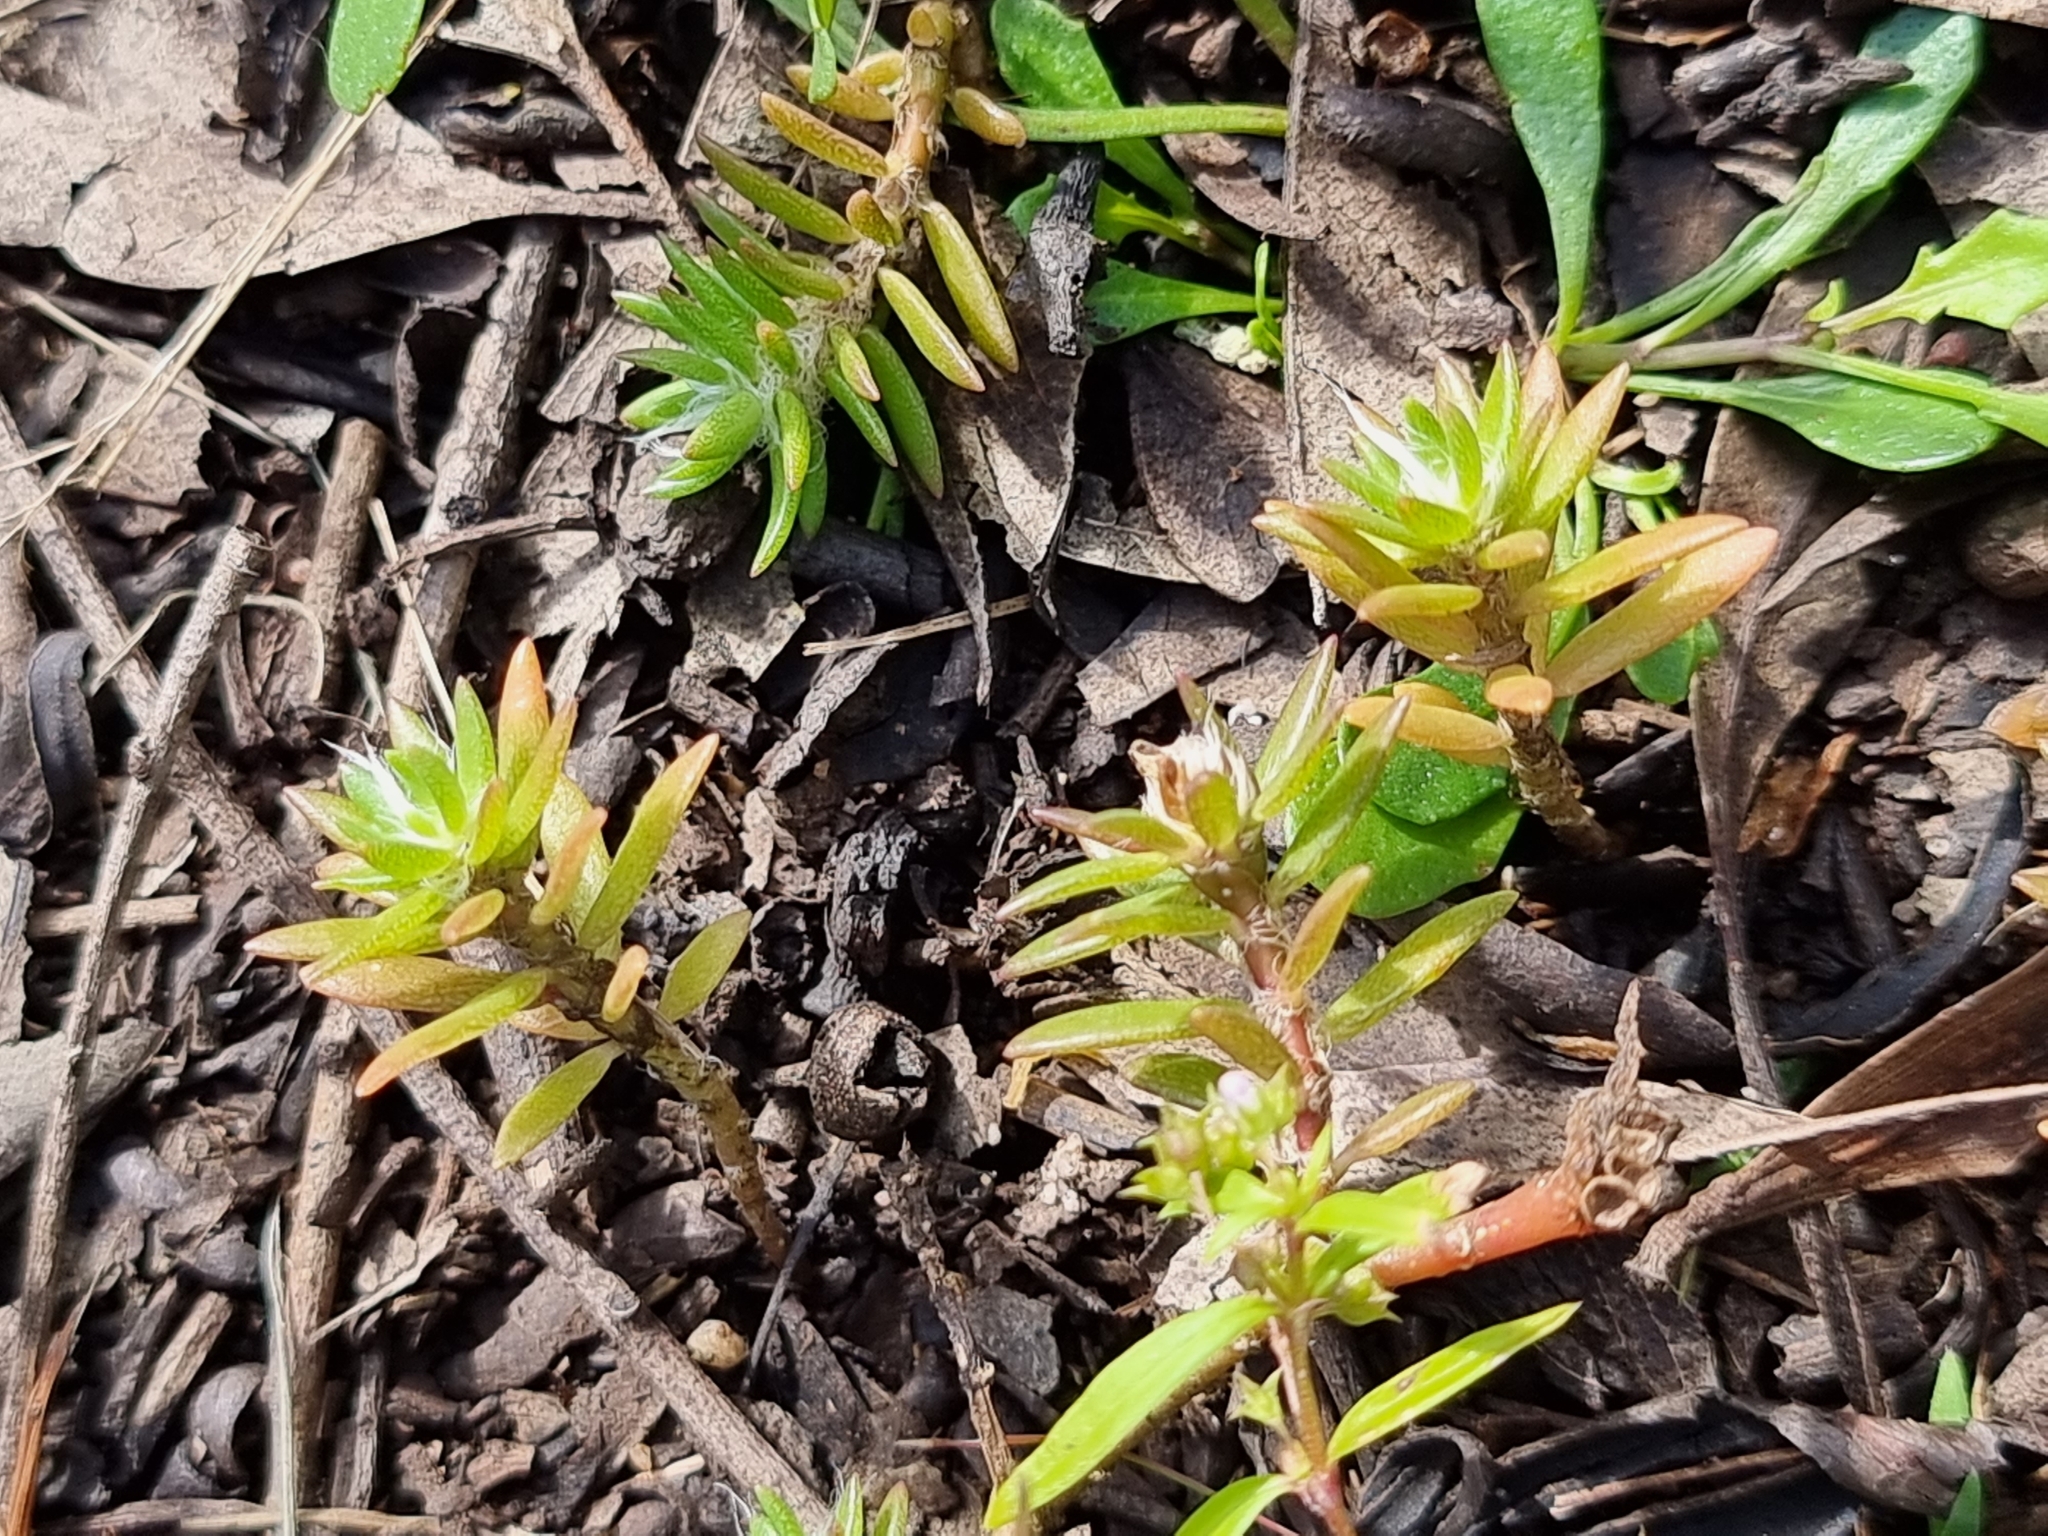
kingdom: Plantae
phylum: Tracheophyta
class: Magnoliopsida
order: Caryophyllales
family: Portulacaceae
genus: Portulaca
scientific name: Portulaca pilosa
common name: Kiss me quick
